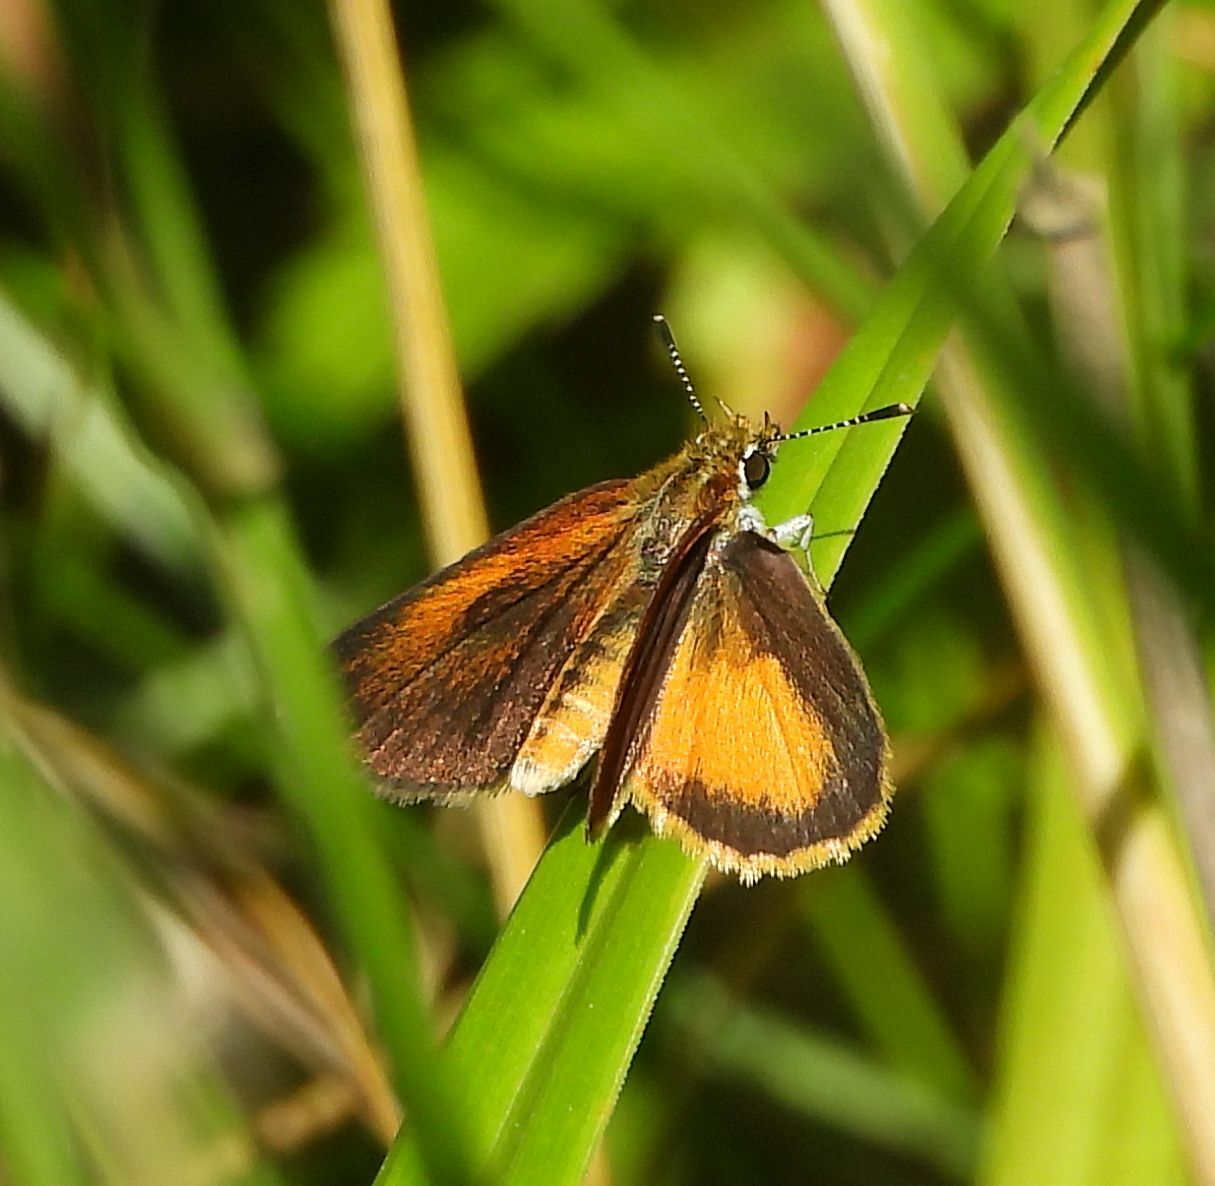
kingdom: Animalia
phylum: Arthropoda
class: Insecta
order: Lepidoptera
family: Hesperiidae
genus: Ancyloxypha
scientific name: Ancyloxypha numitor
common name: Least skipper
